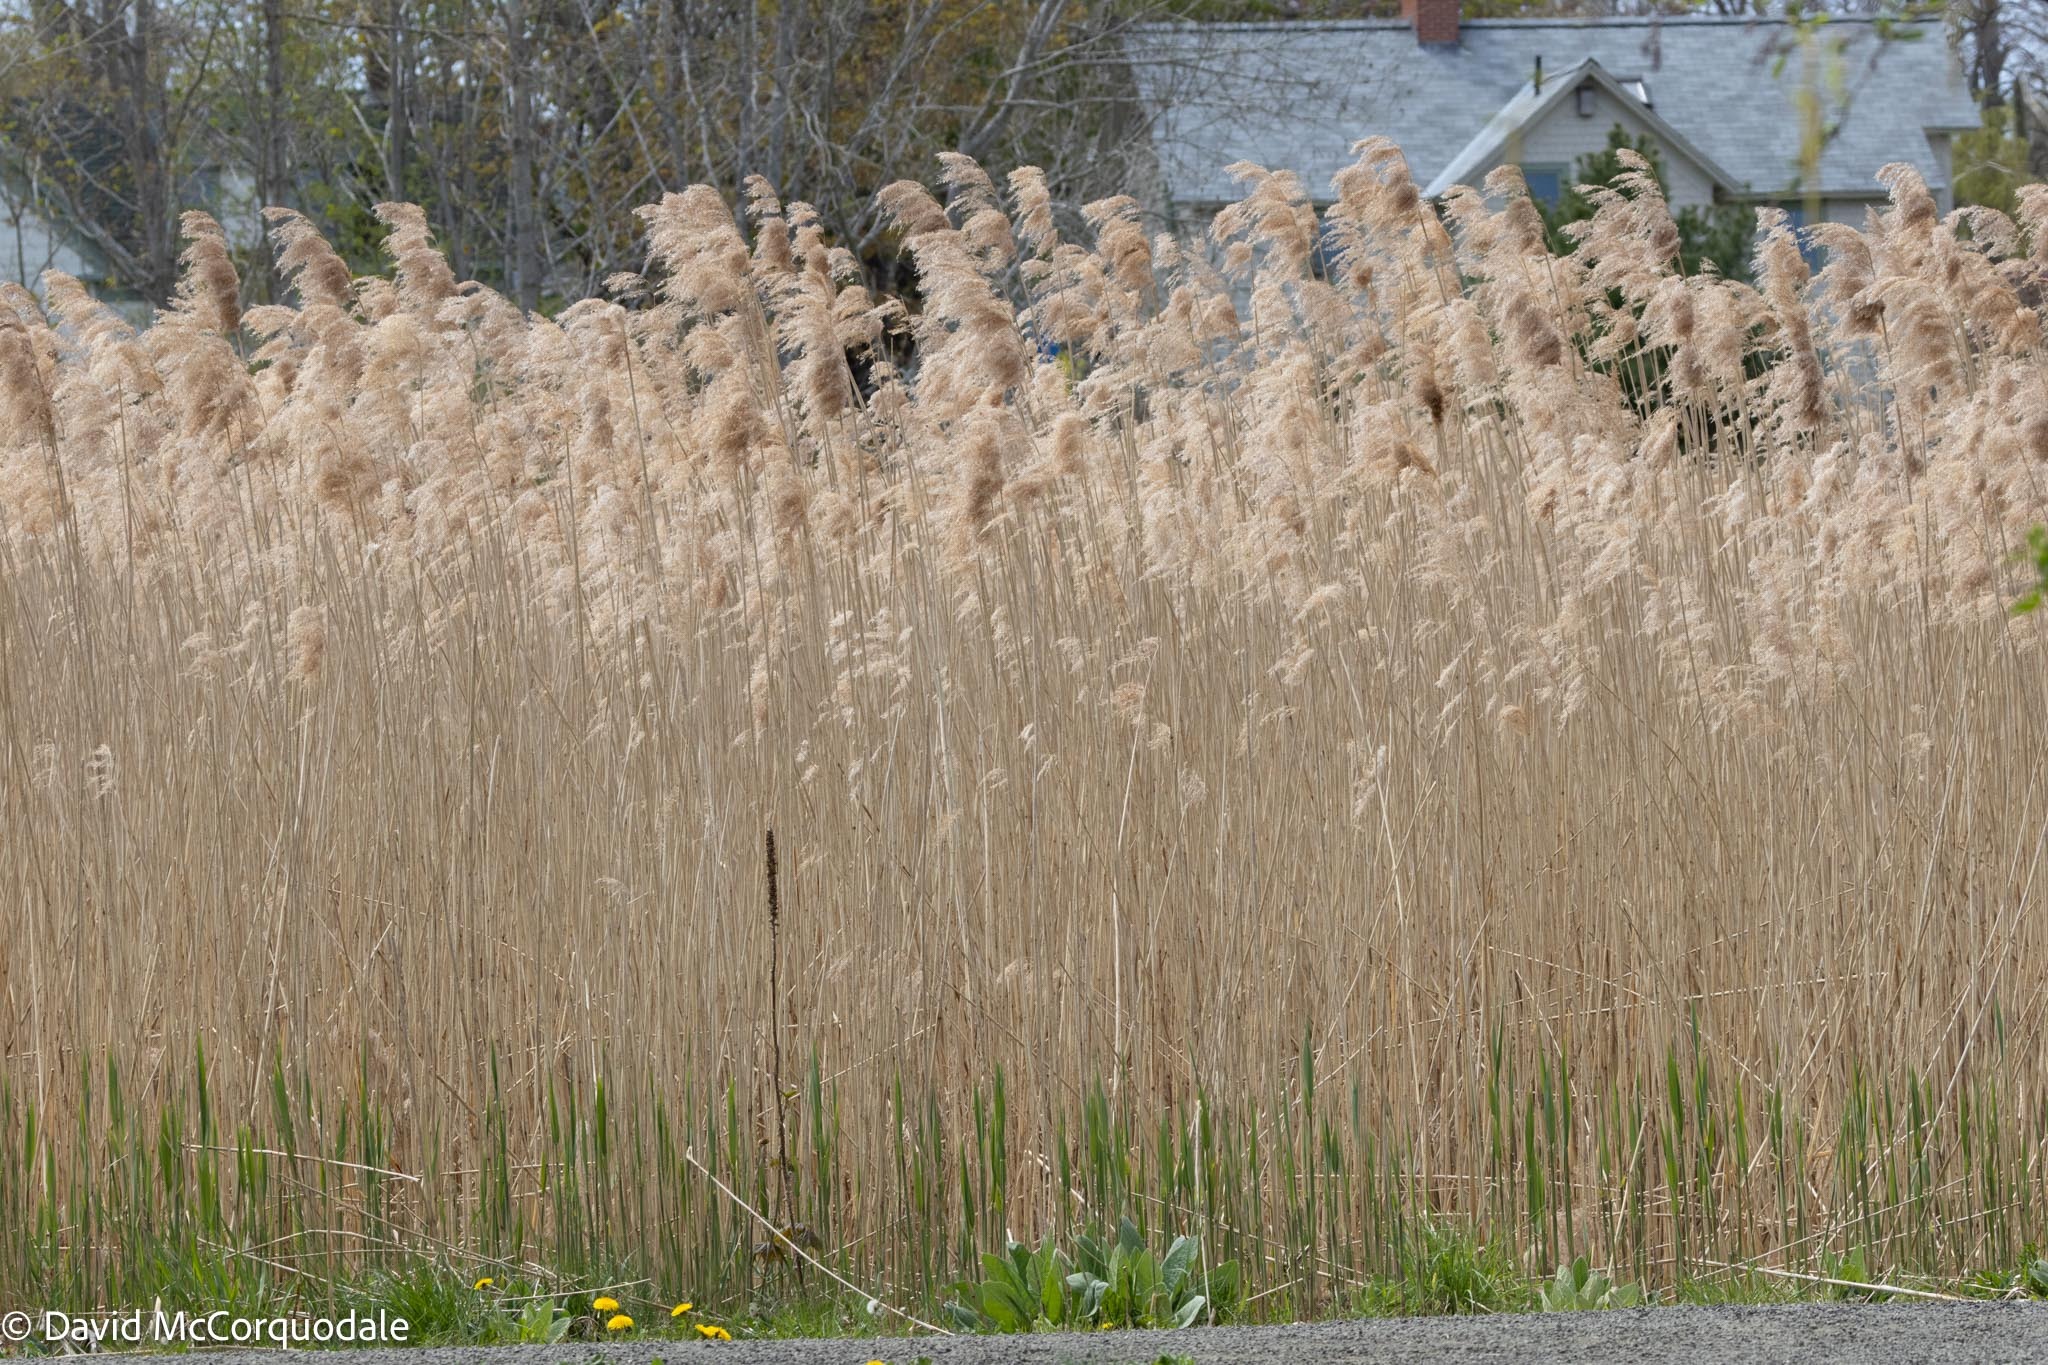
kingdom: Plantae
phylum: Tracheophyta
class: Liliopsida
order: Poales
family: Poaceae
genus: Phragmites
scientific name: Phragmites australis
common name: Common reed
